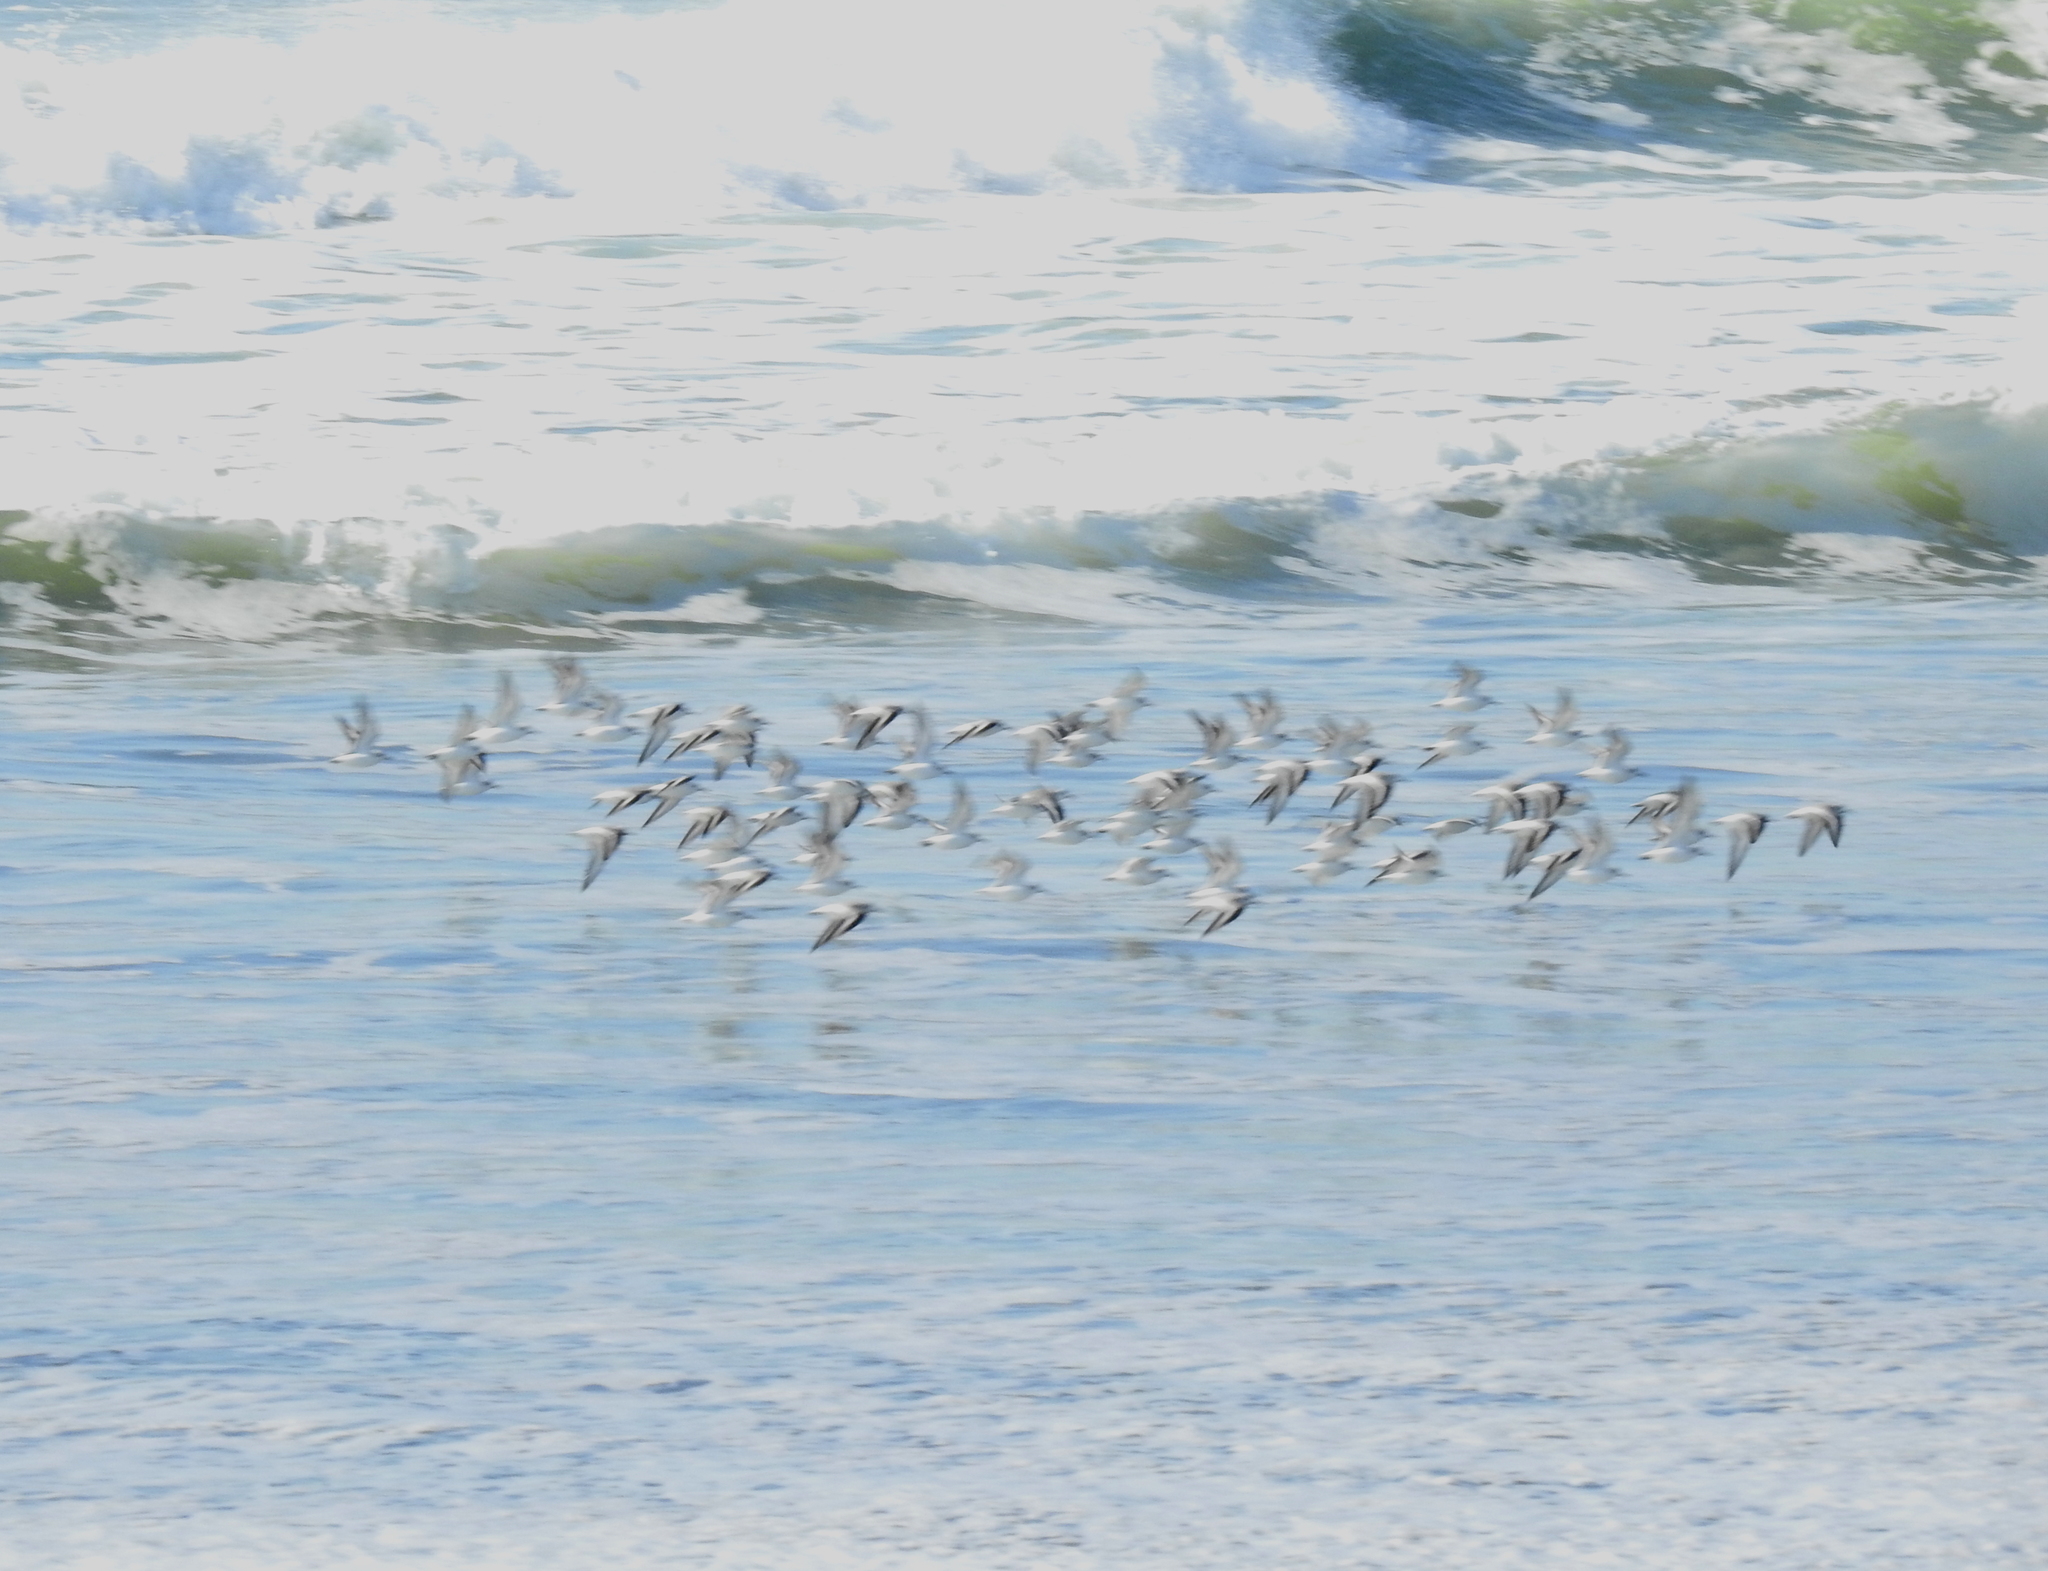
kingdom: Animalia
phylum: Chordata
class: Aves
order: Charadriiformes
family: Scolopacidae
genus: Calidris
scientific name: Calidris alba
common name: Sanderling
